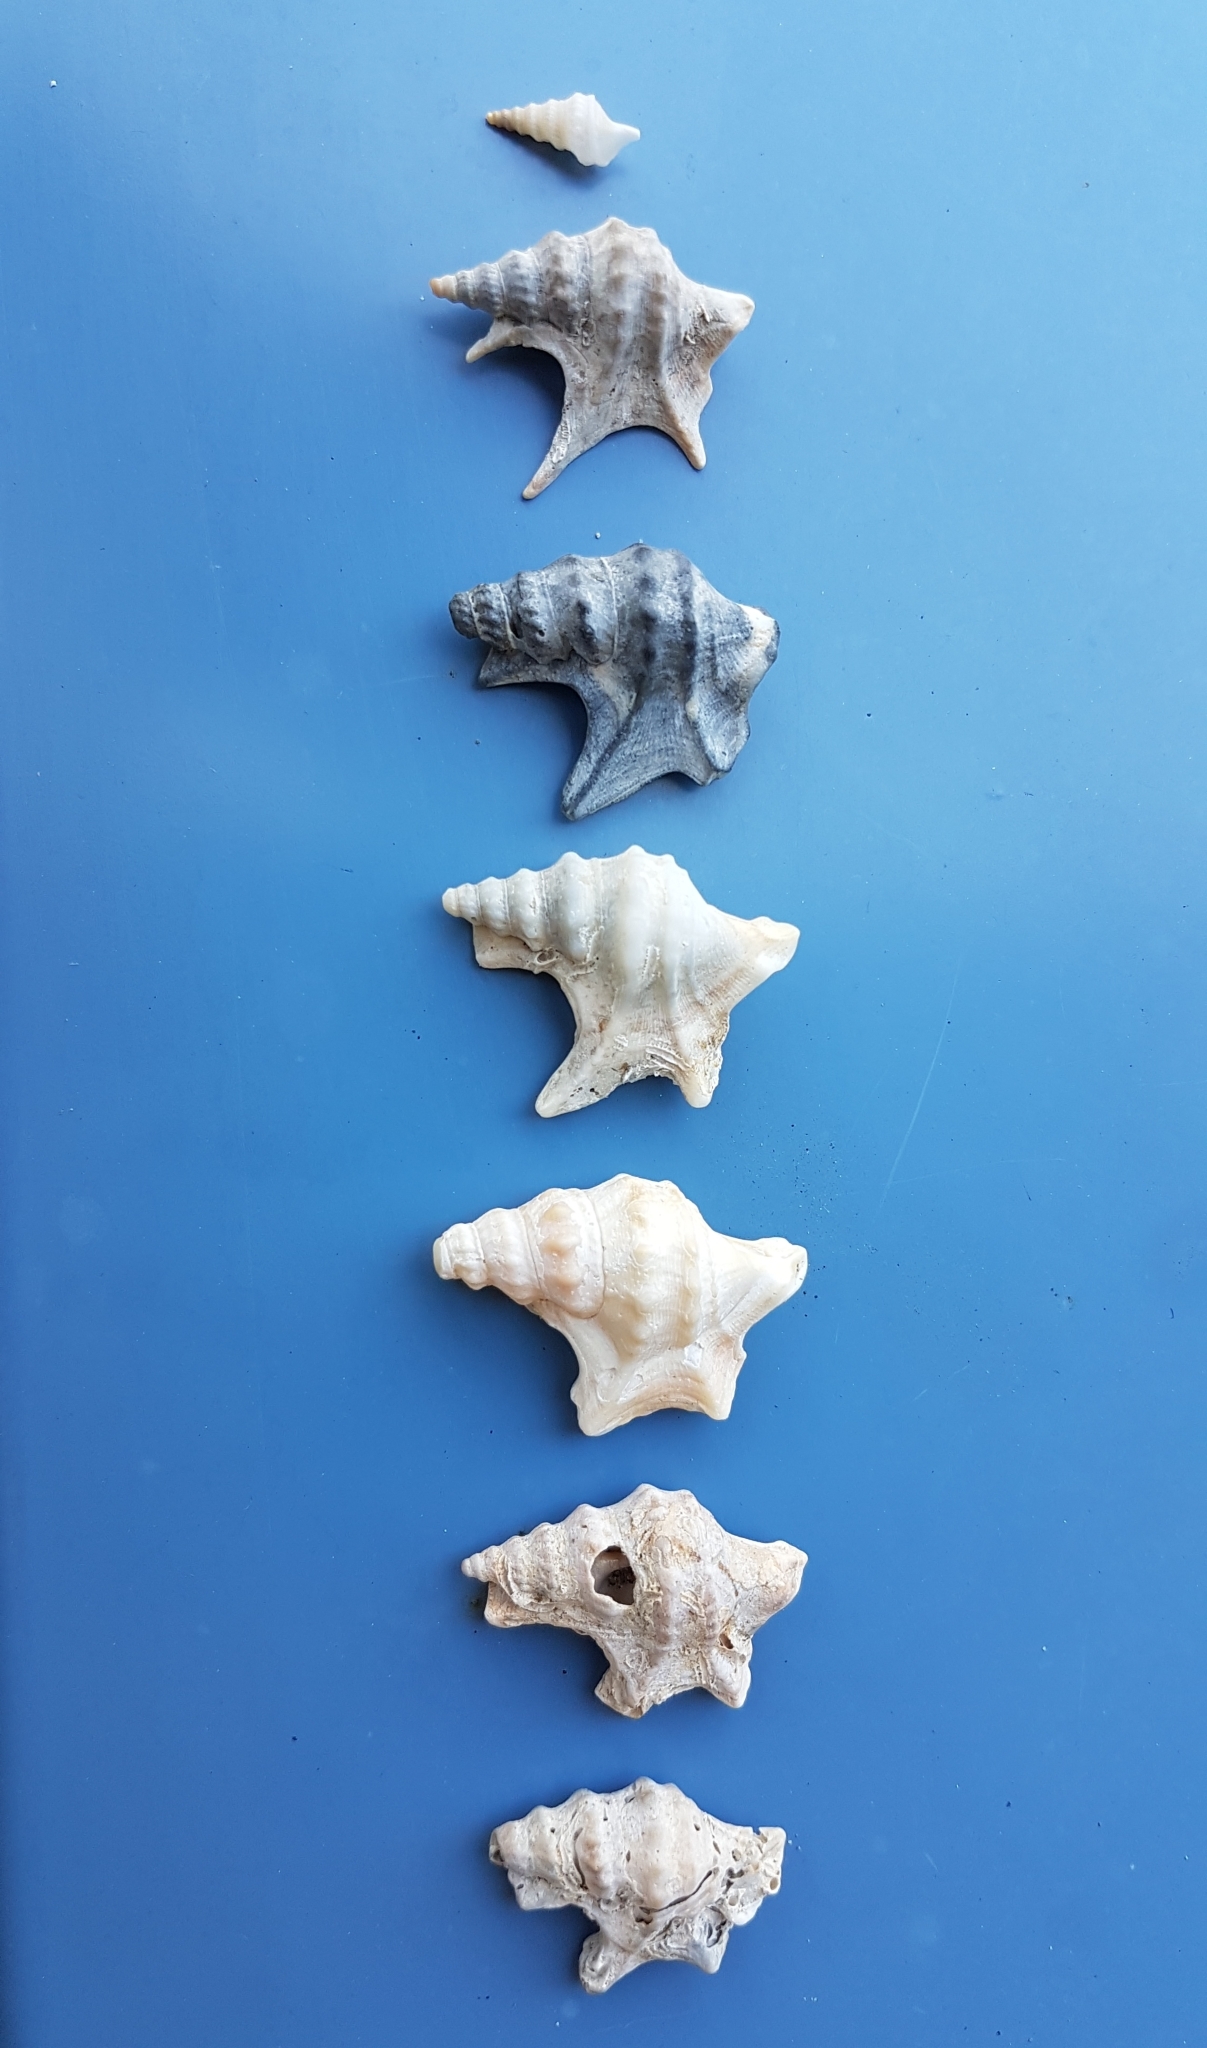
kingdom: Animalia
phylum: Mollusca
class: Gastropoda
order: Littorinimorpha
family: Aporrhaidae
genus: Aporrhais
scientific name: Aporrhais pespelecani
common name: Common pelican’s foot
